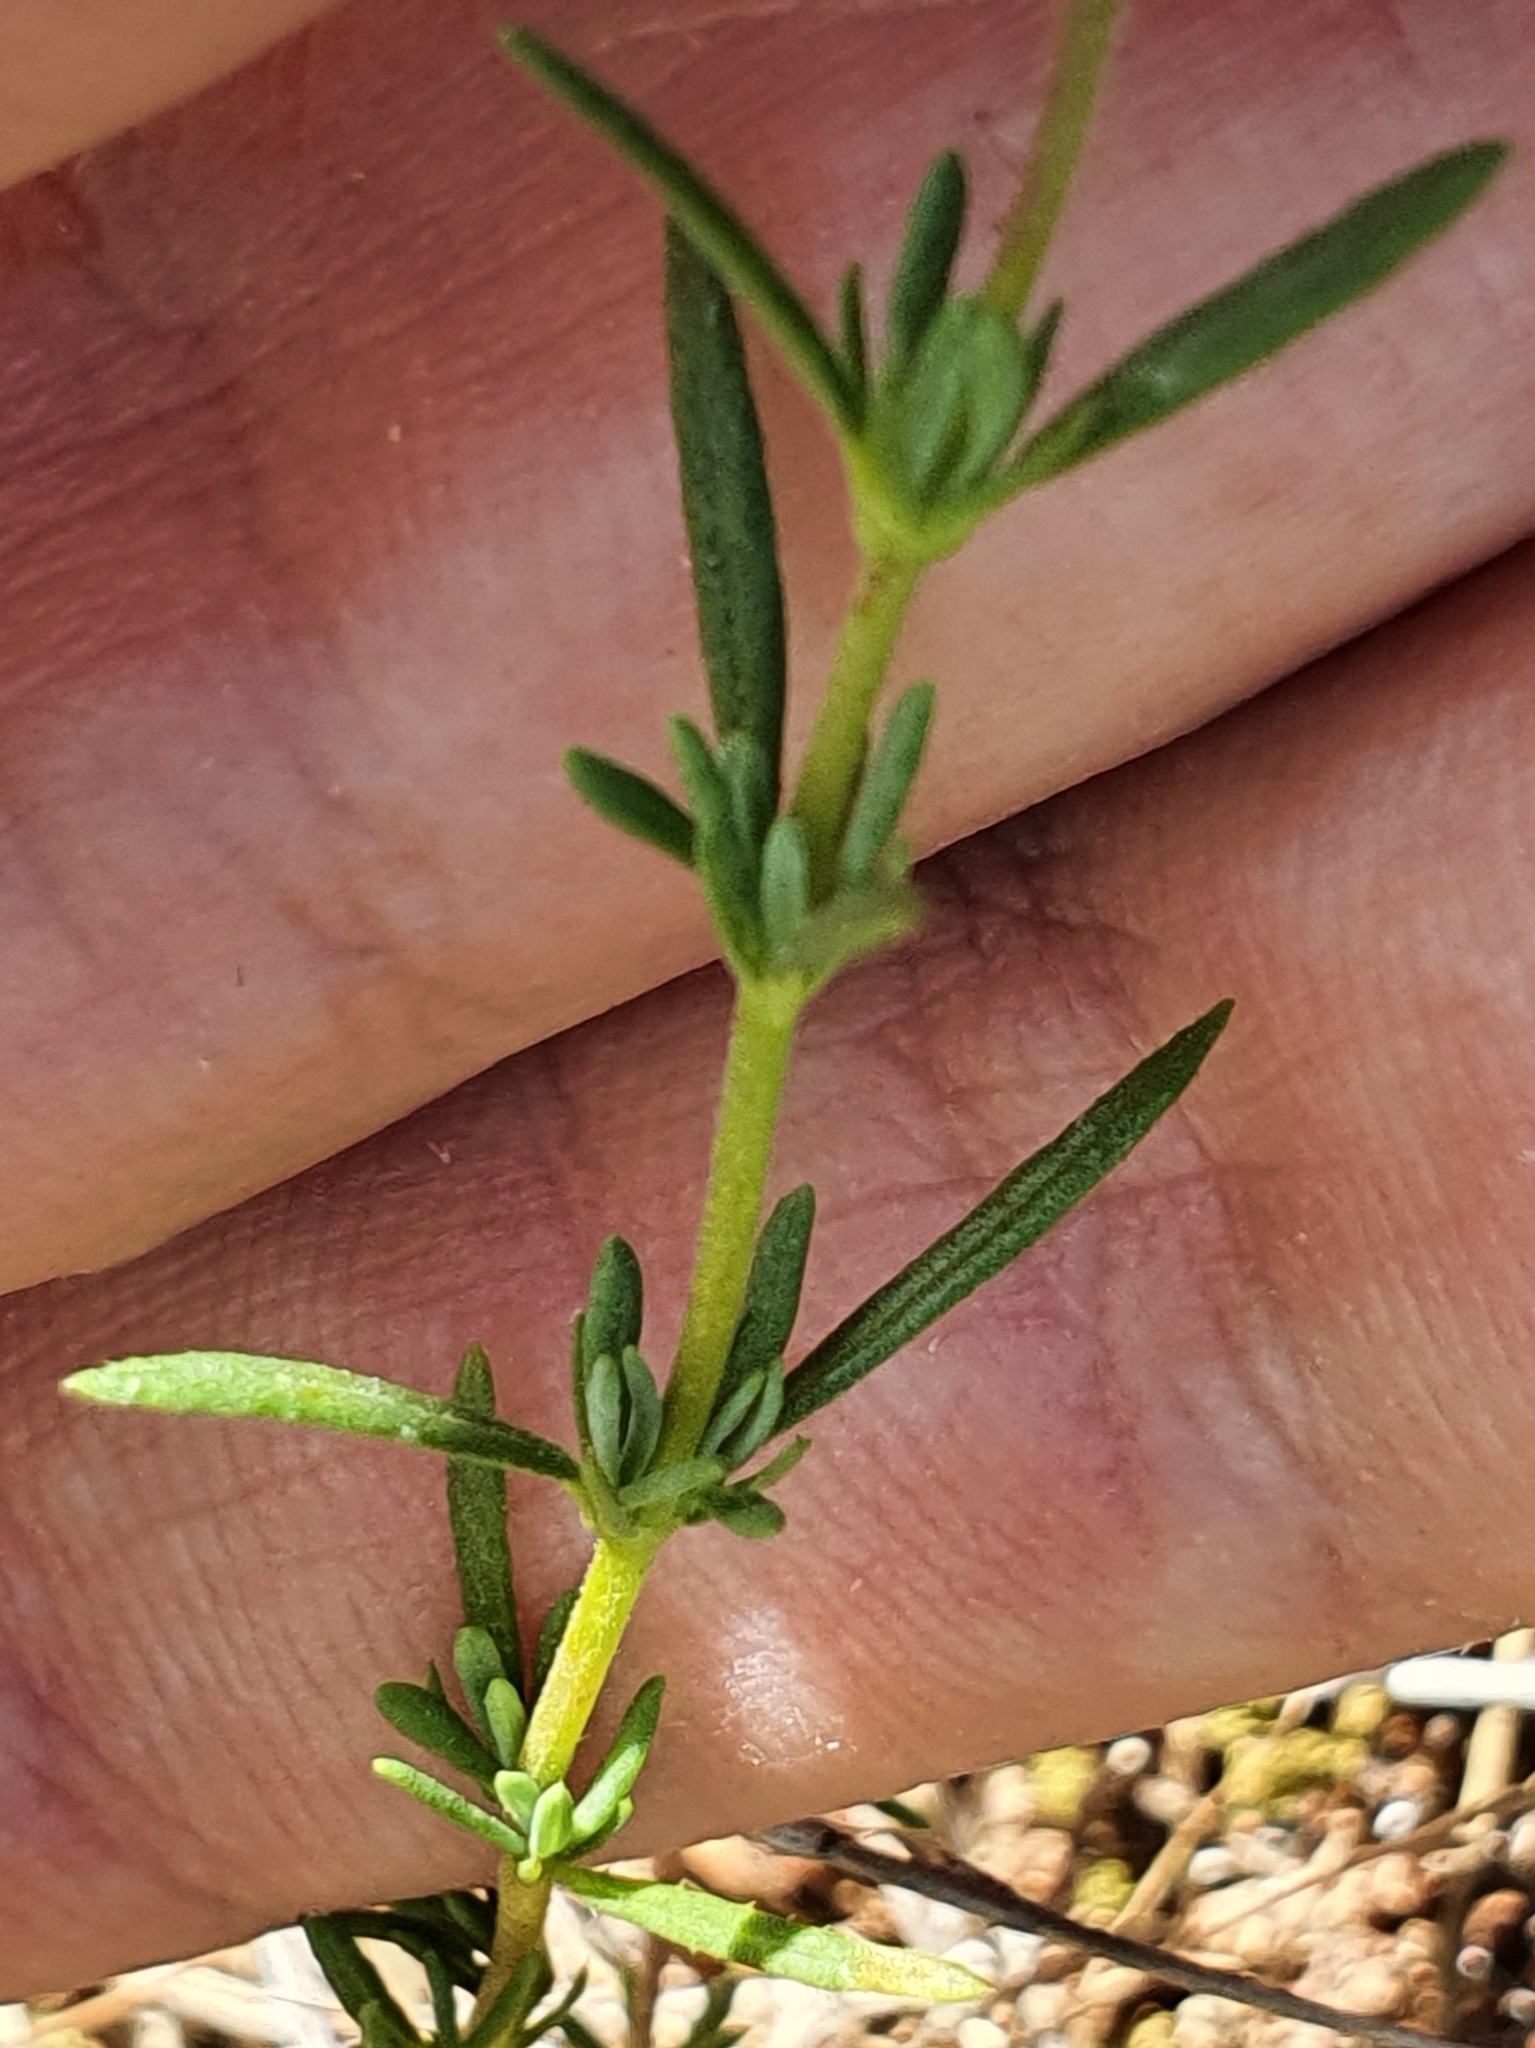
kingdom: Plantae
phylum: Tracheophyta
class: Magnoliopsida
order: Malvales
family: Cistaceae
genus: Fumana
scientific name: Fumana laevis
